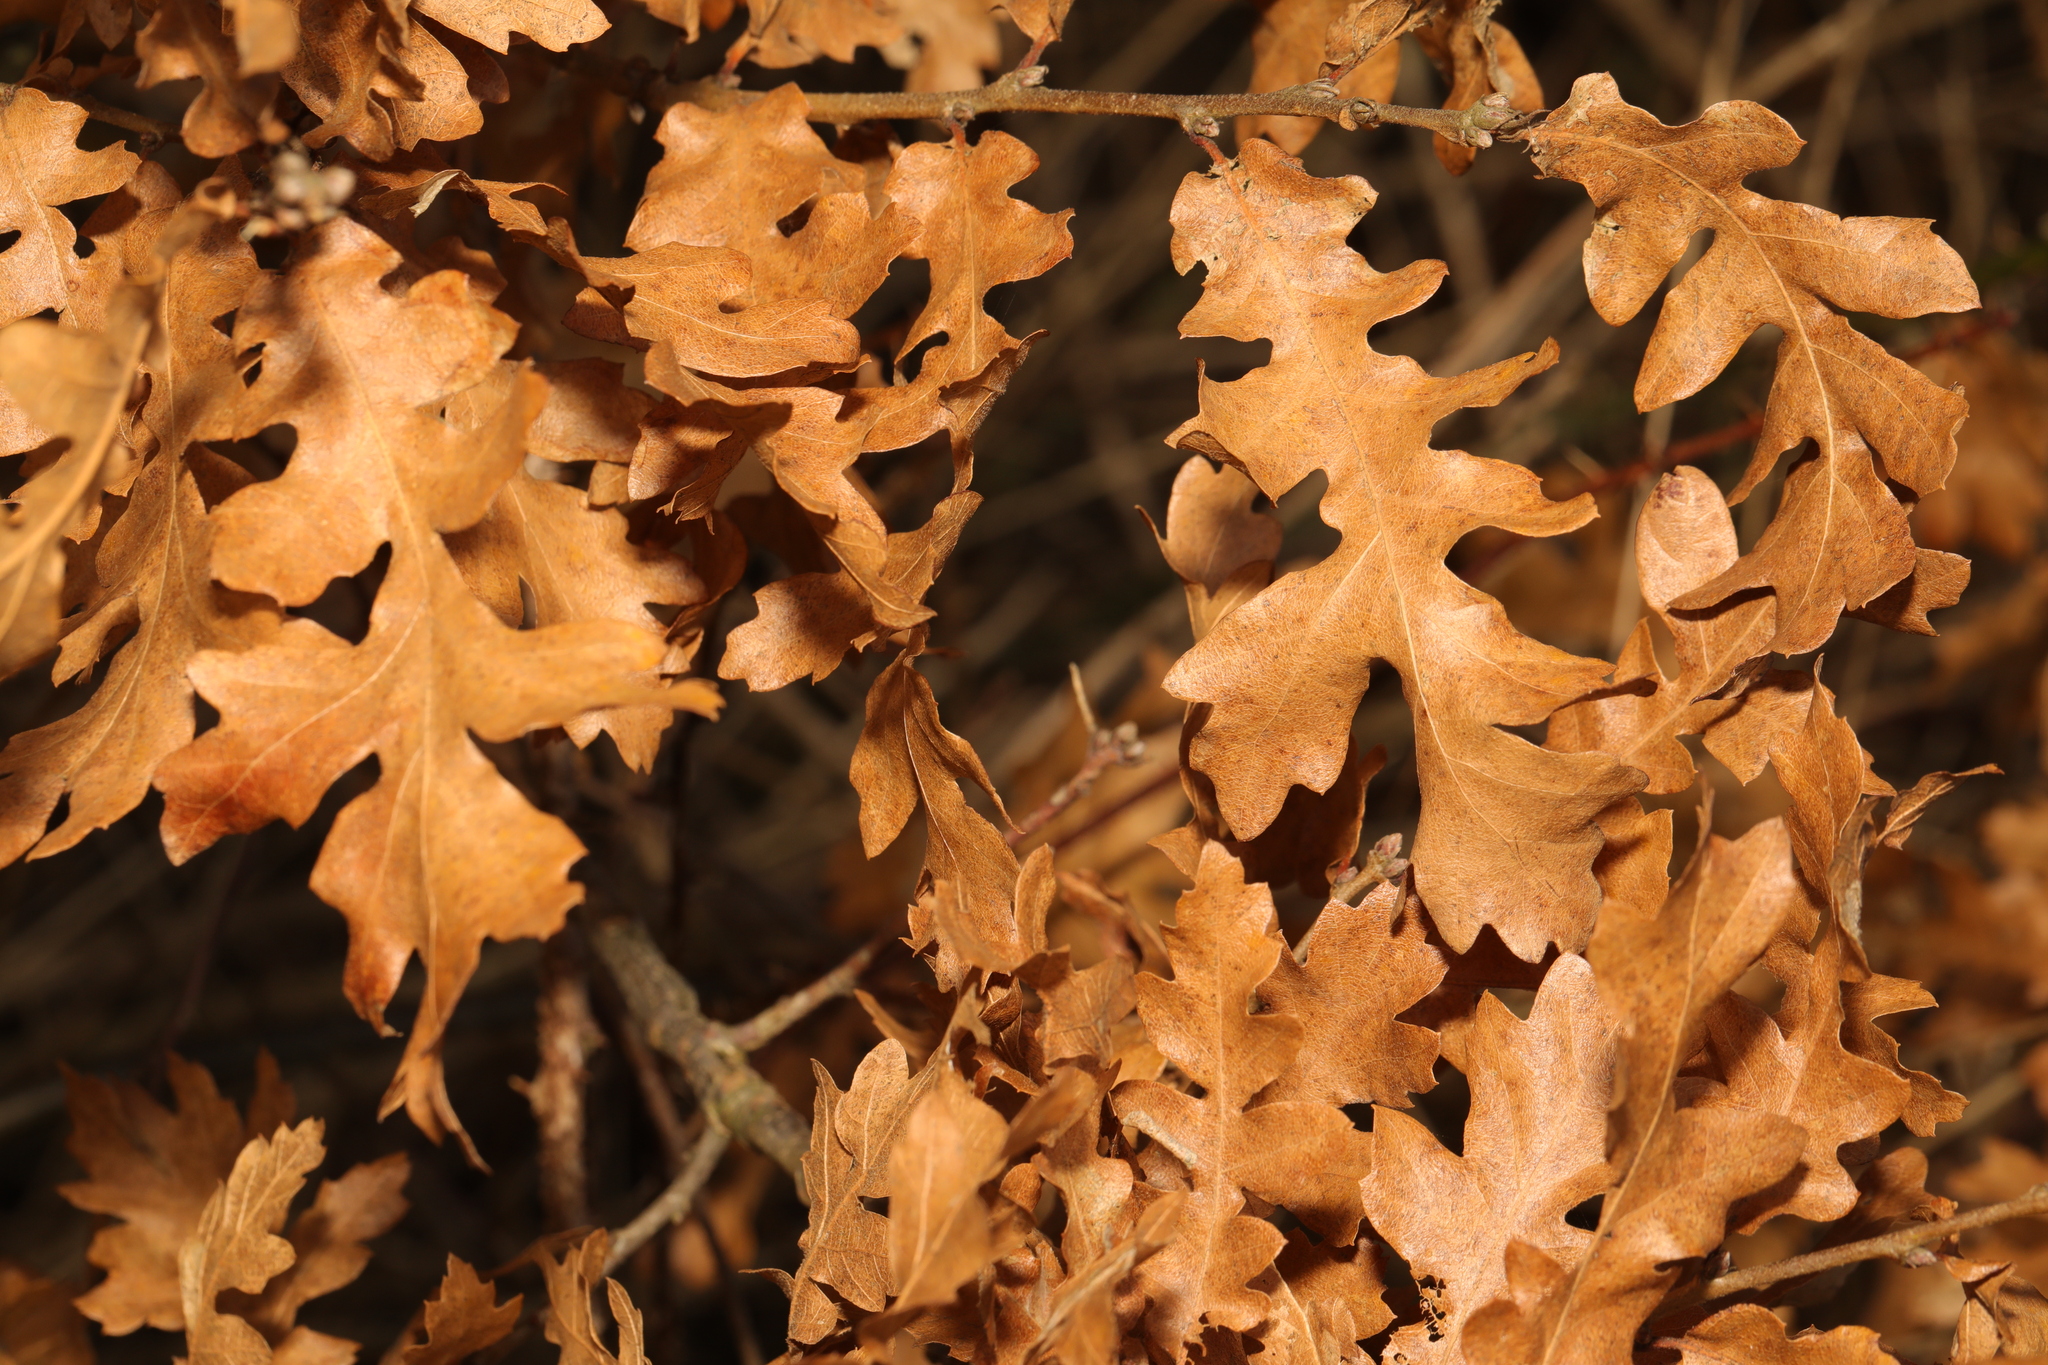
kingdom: Plantae
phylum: Tracheophyta
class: Magnoliopsida
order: Fagales
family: Fagaceae
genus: Quercus
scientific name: Quercus cerris
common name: Turkey oak
